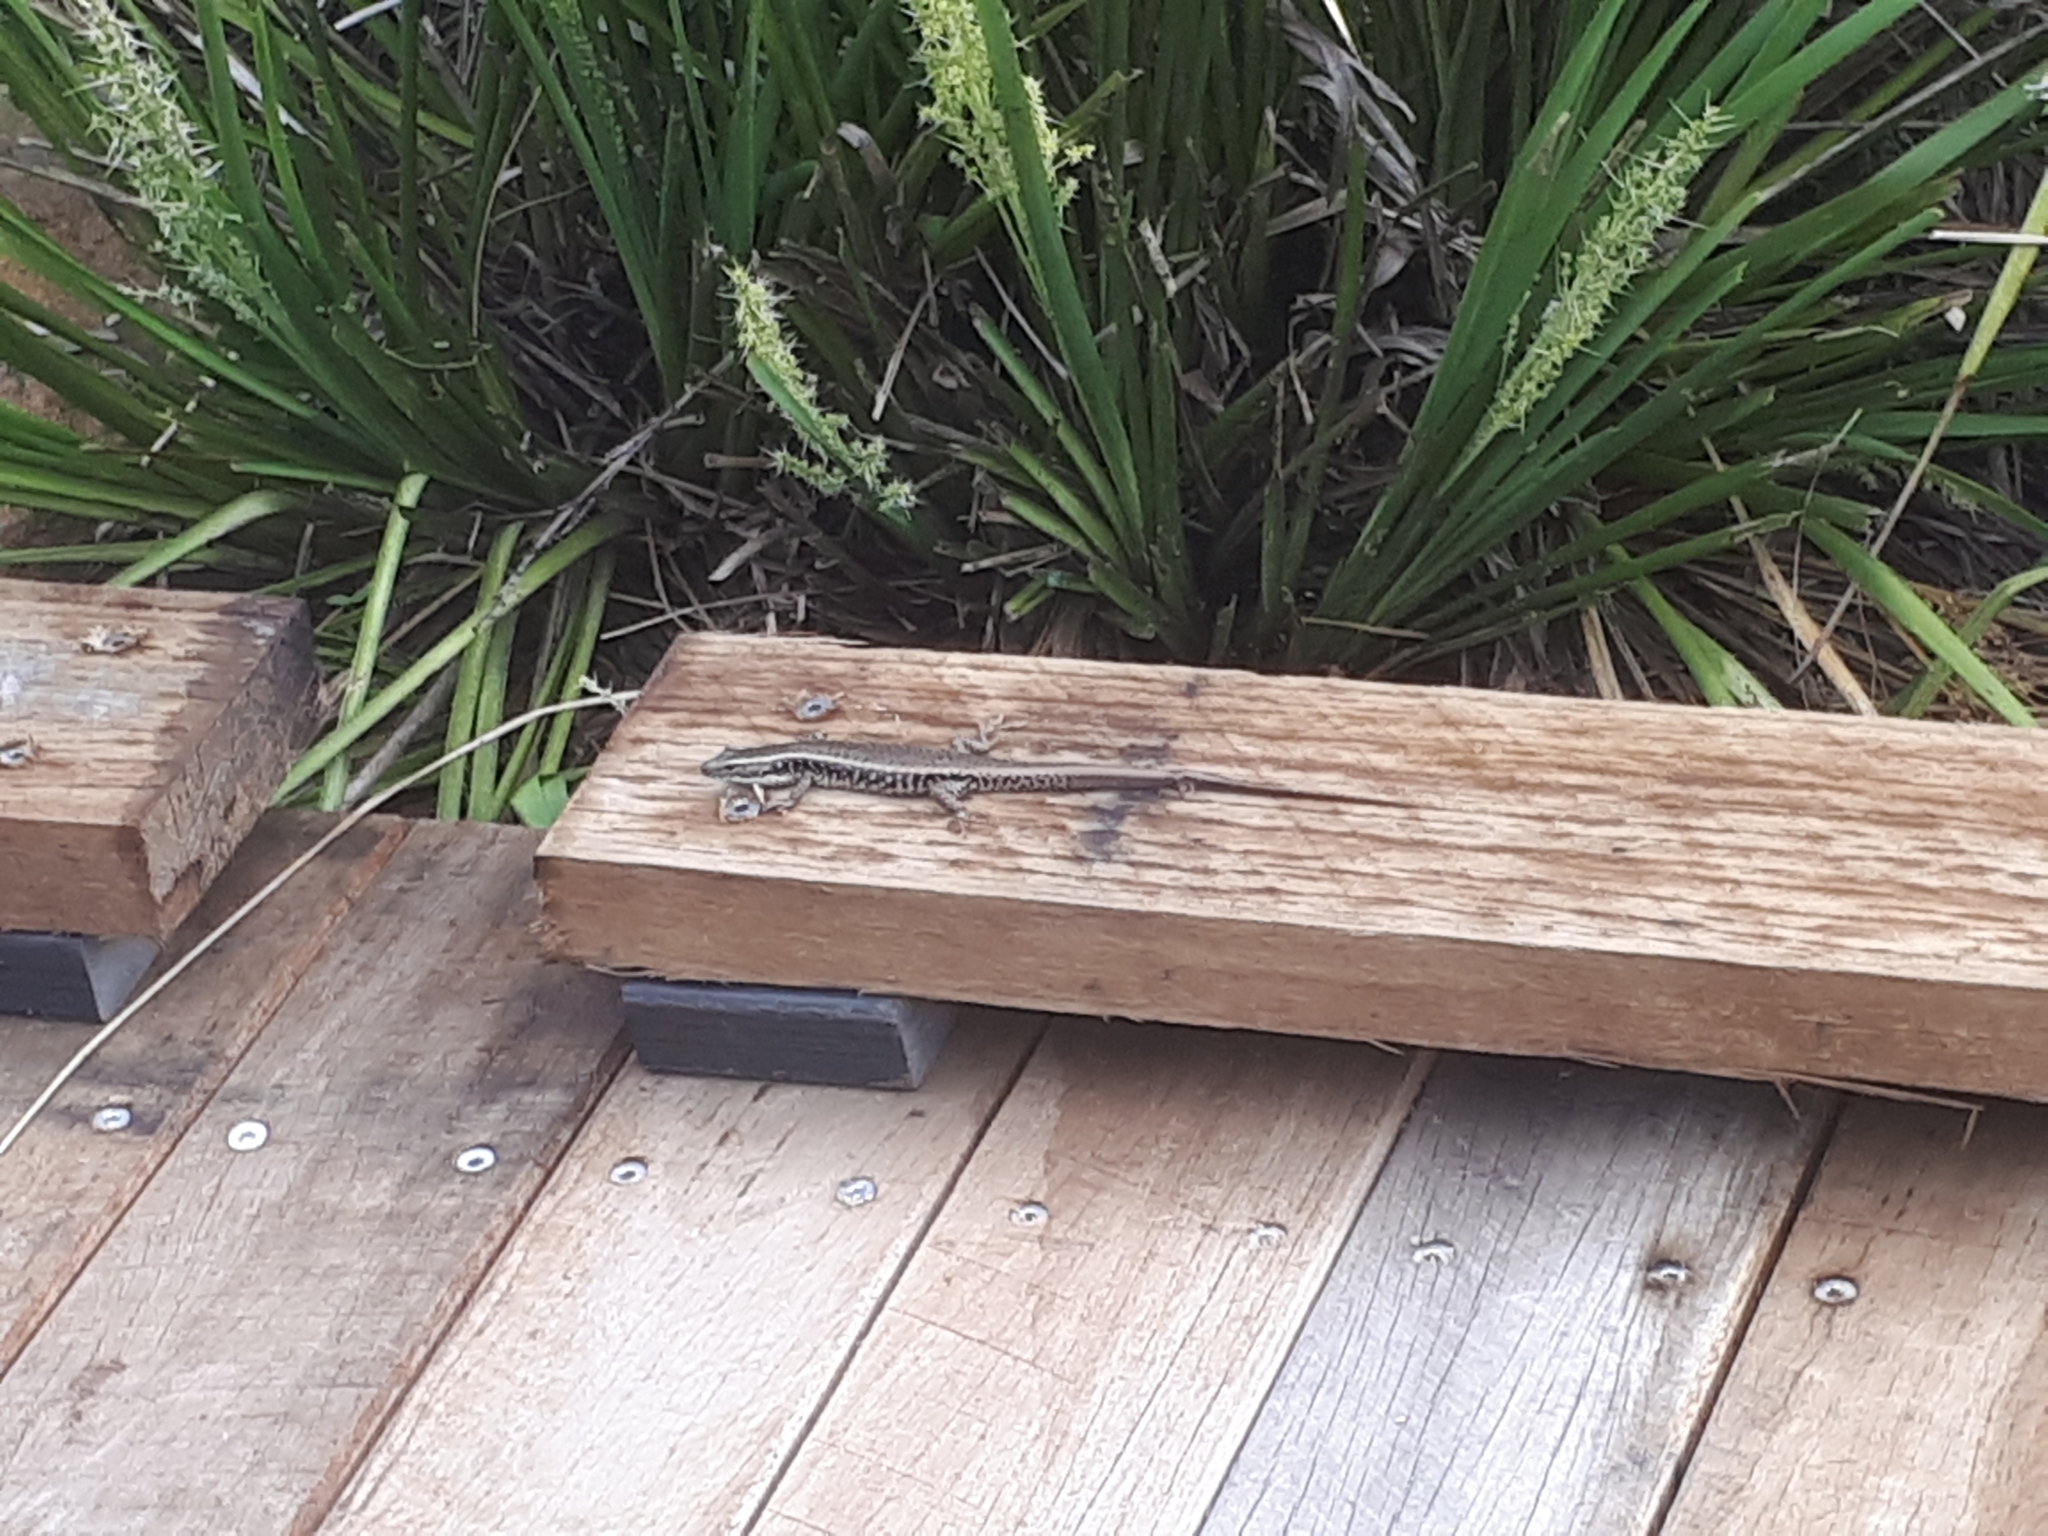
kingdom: Animalia
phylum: Chordata
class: Squamata
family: Scincidae
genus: Eulamprus
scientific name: Eulamprus quoyii
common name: Eastern water skink
